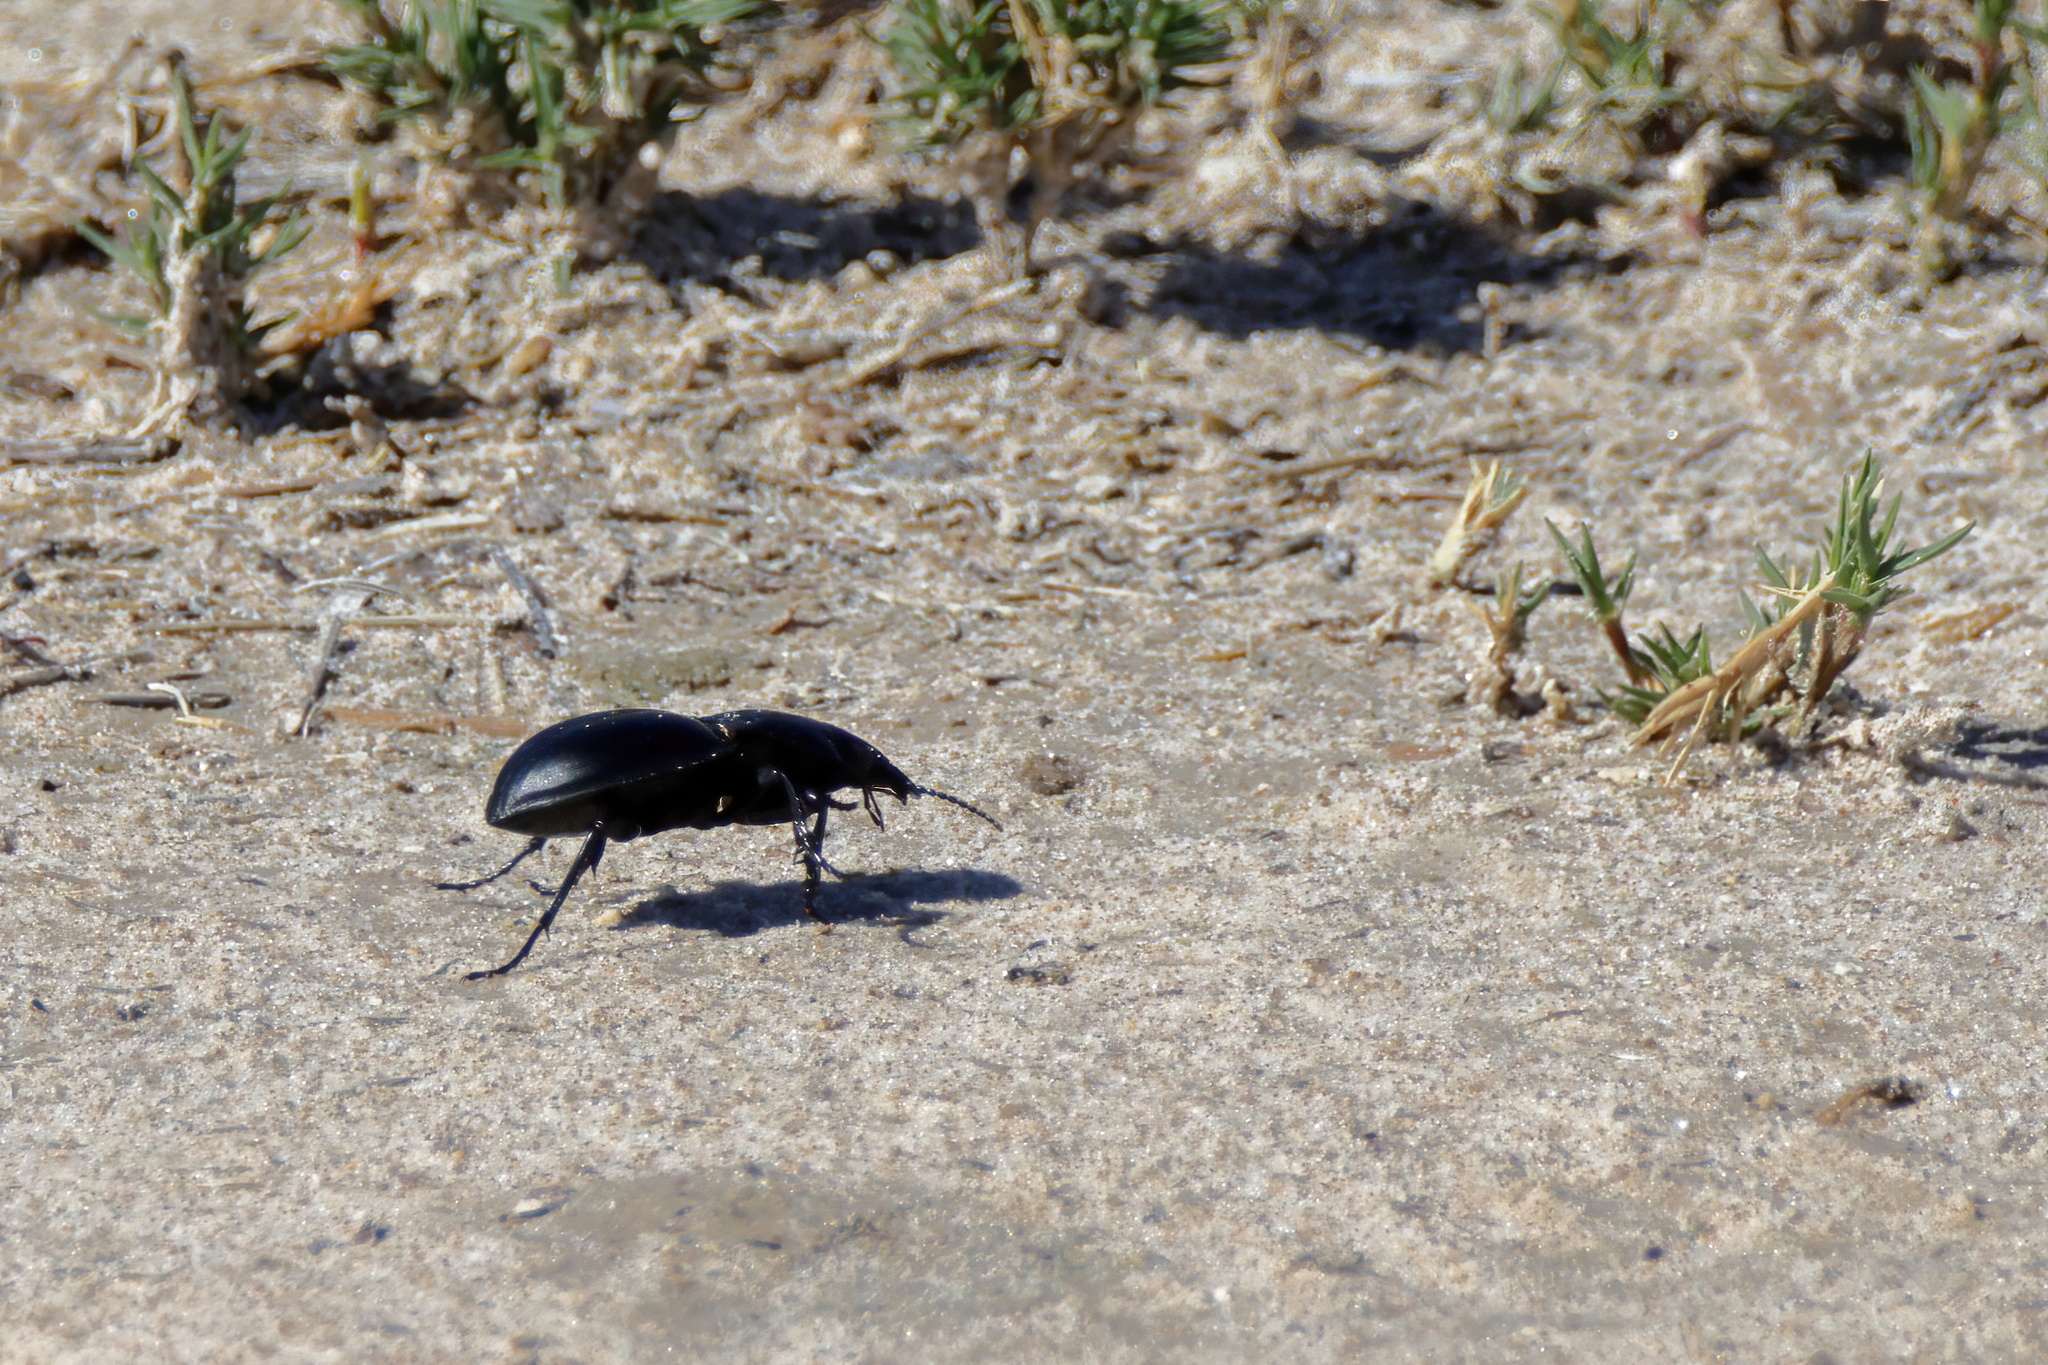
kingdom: Animalia
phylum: Arthropoda
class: Insecta
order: Coleoptera
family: Carabidae
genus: Pasimachus
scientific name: Pasimachus californicus
